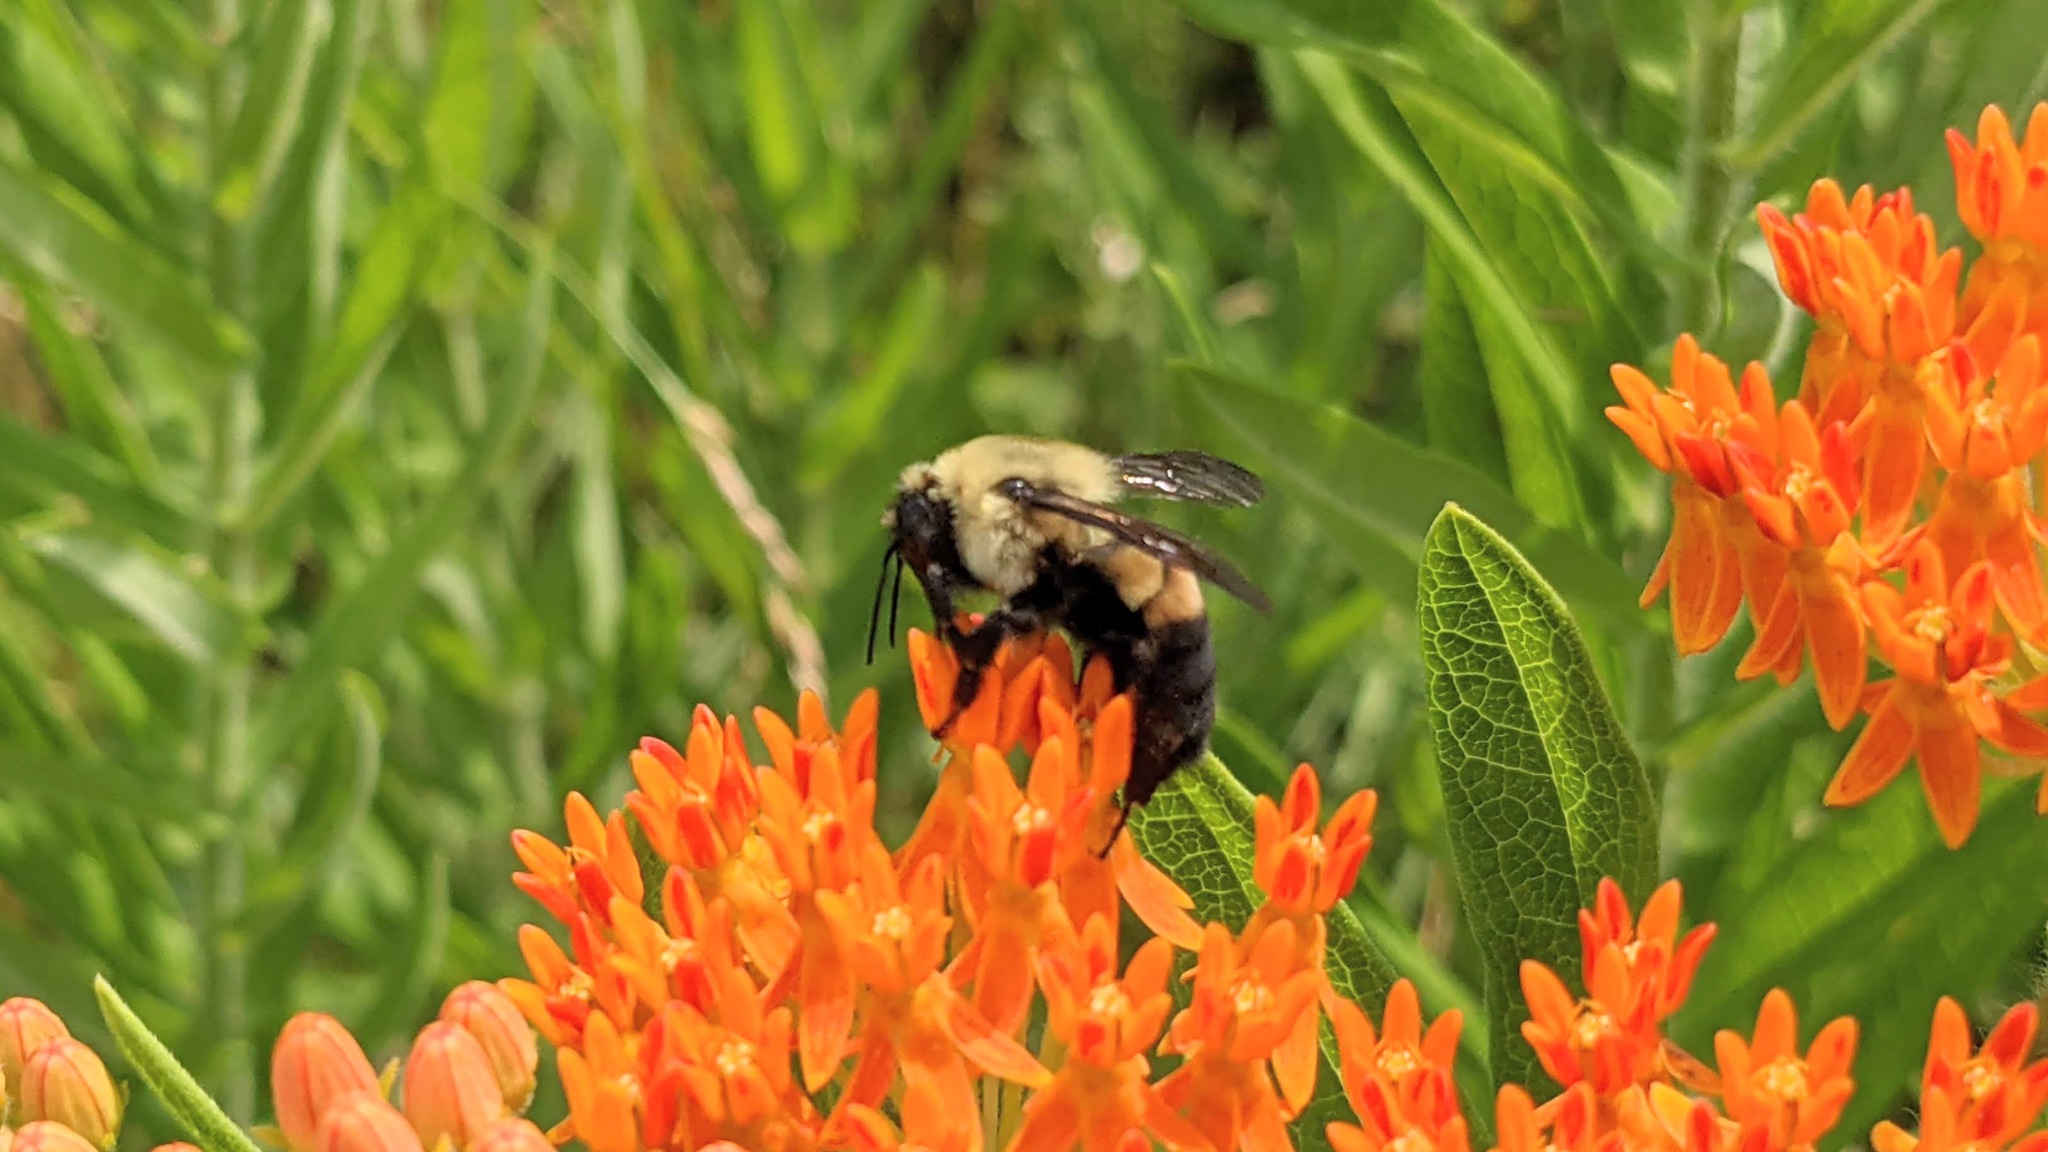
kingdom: Animalia
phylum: Arthropoda
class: Insecta
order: Hymenoptera
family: Apidae
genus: Bombus
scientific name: Bombus griseocollis
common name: Brown-belted bumble bee
